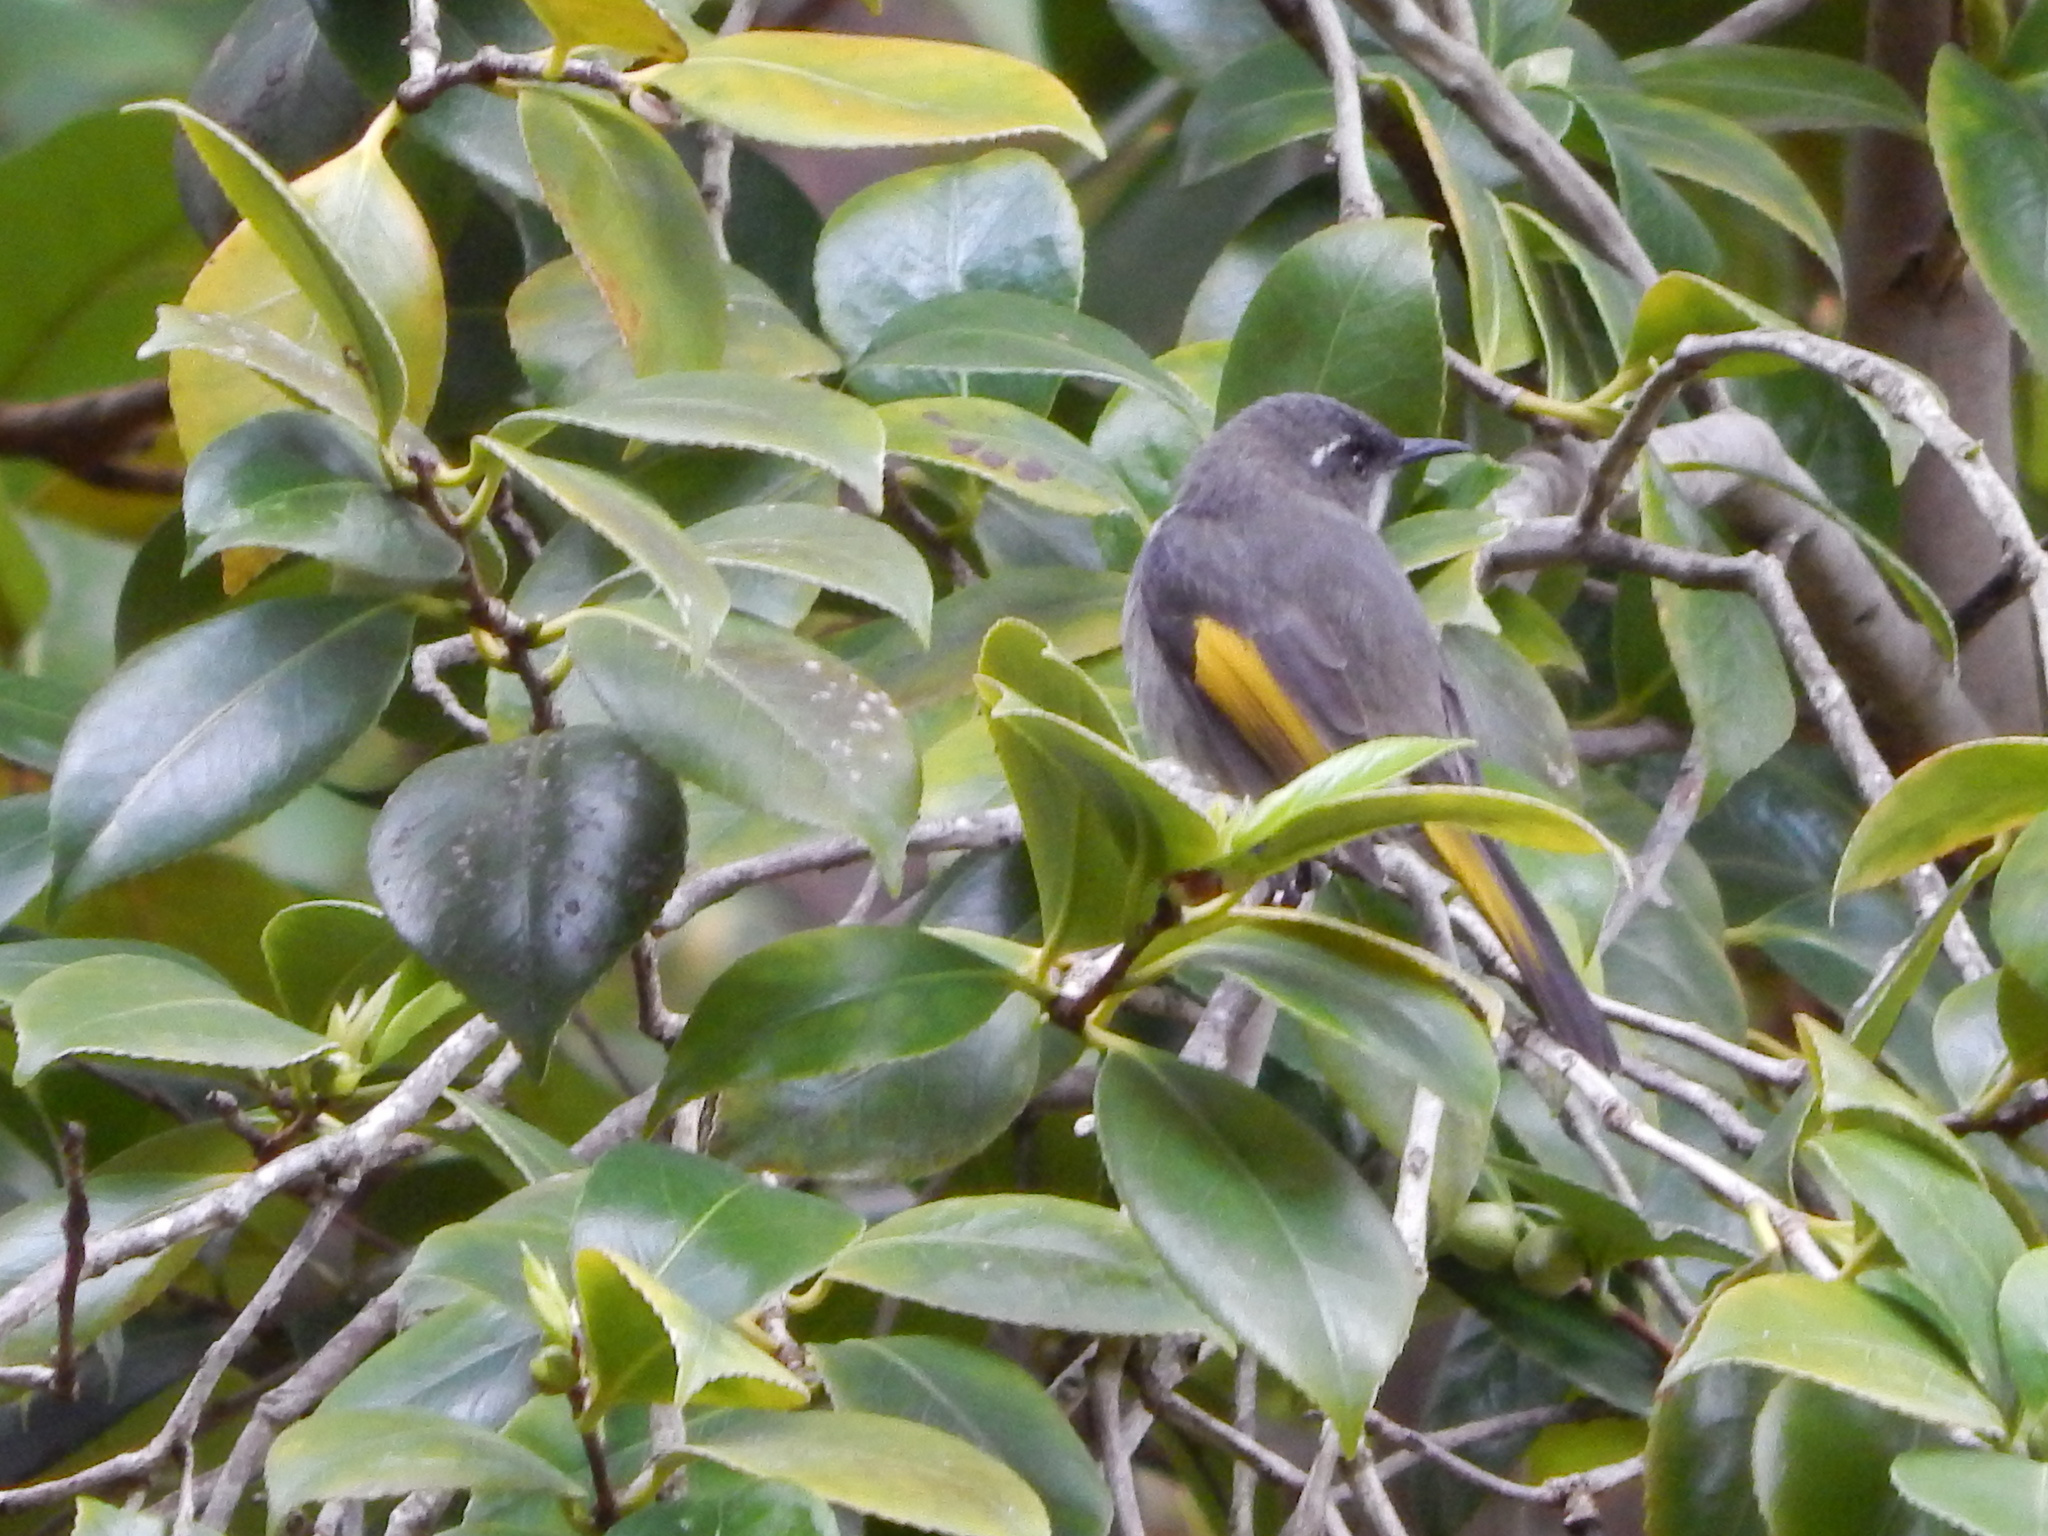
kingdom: Animalia
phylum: Chordata
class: Aves
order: Passeriformes
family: Meliphagidae
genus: Phylidonyris
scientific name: Phylidonyris pyrrhopterus
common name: Crescent honeyeater
